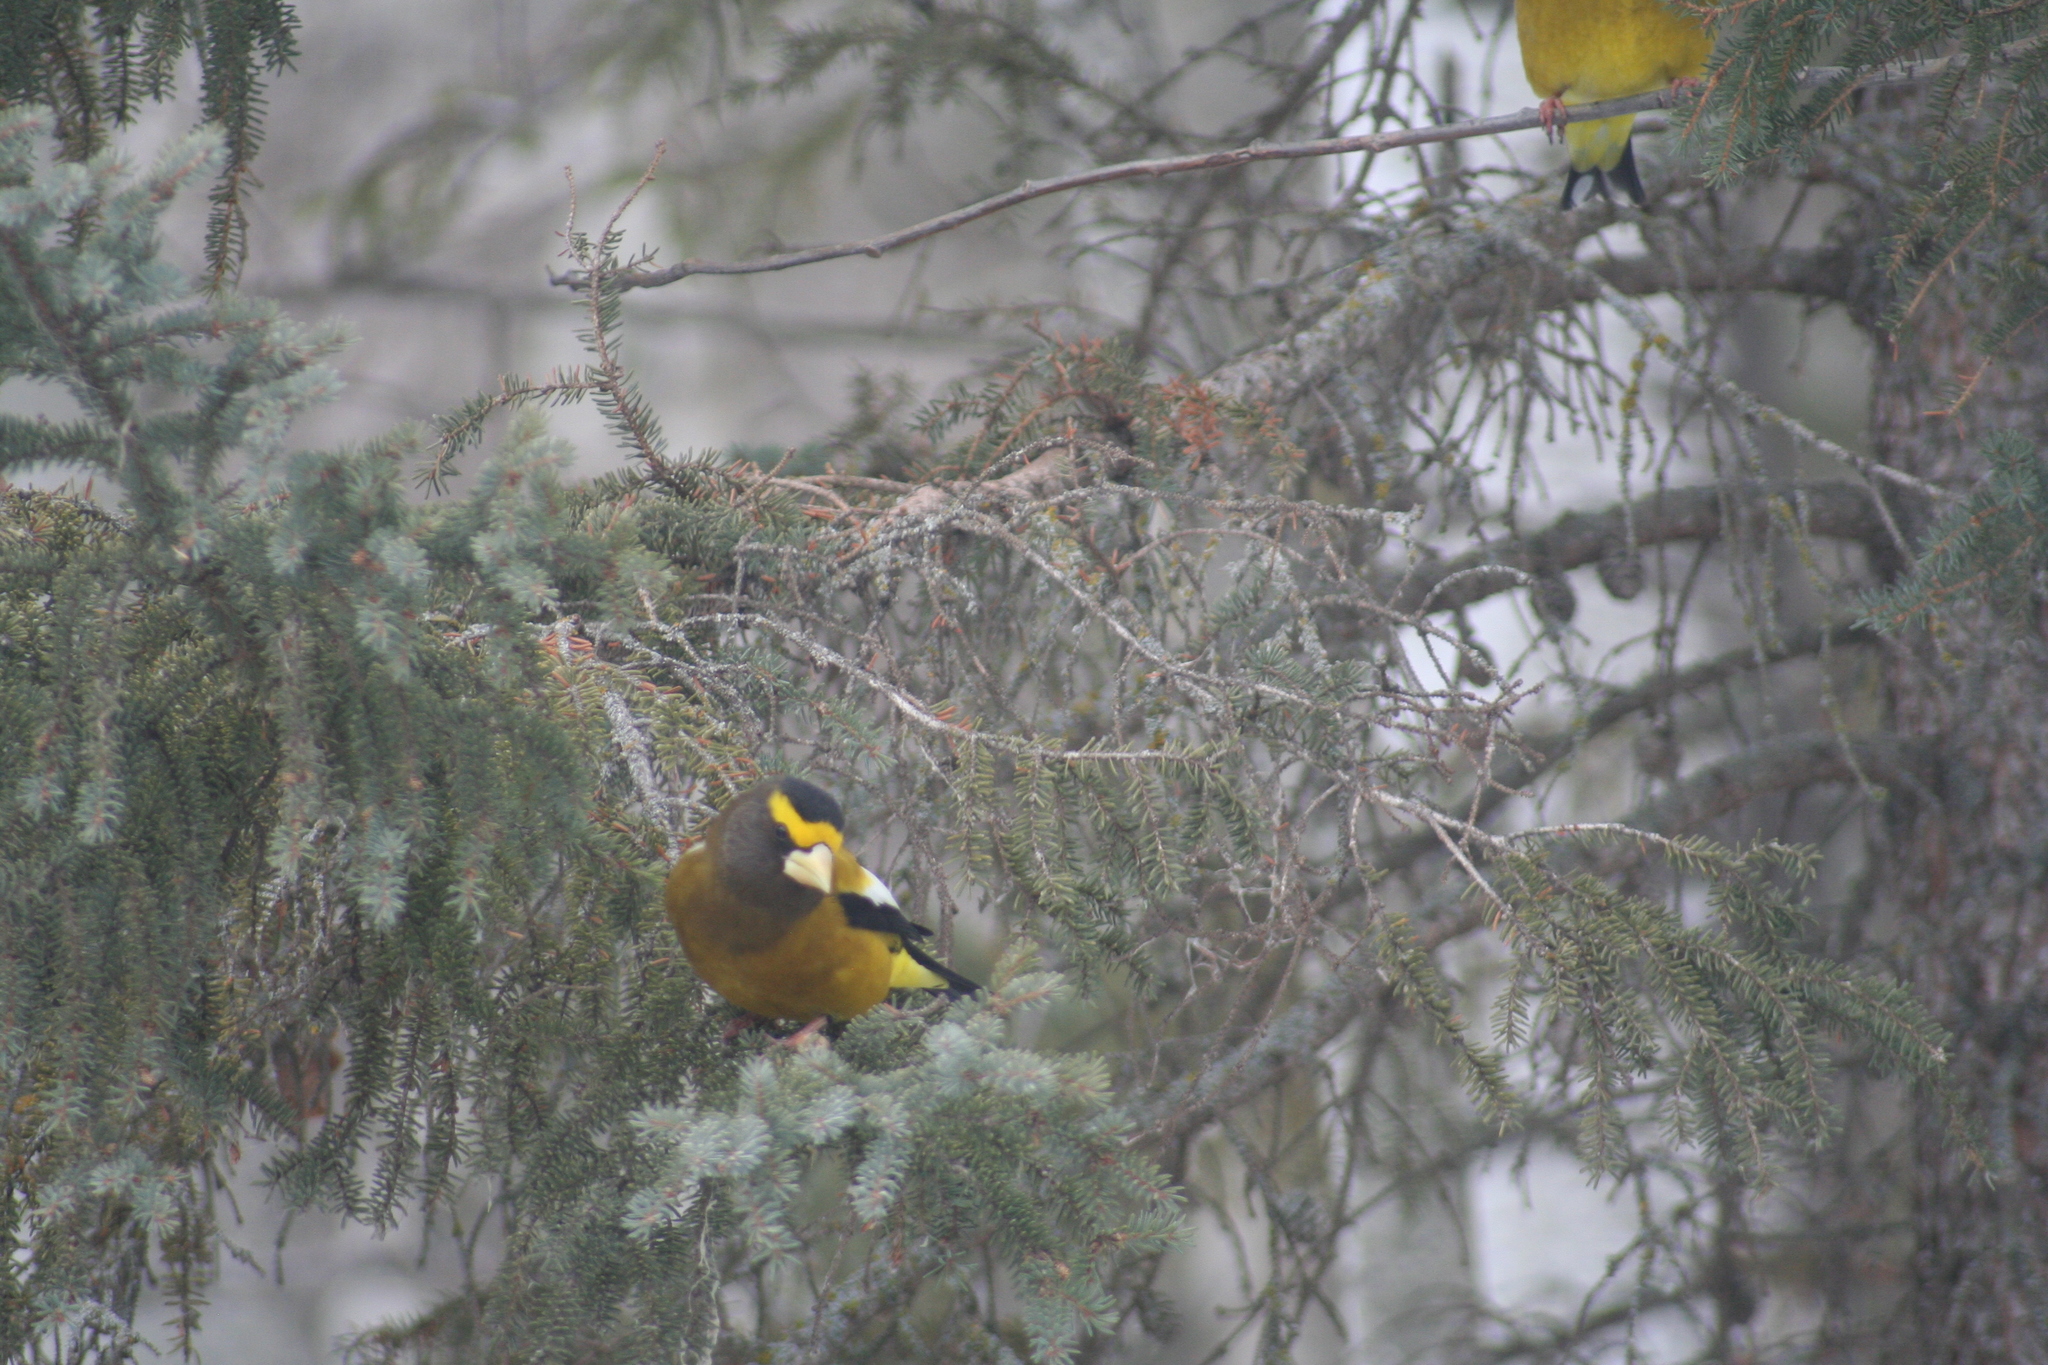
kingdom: Animalia
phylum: Chordata
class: Aves
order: Passeriformes
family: Fringillidae
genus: Hesperiphona
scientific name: Hesperiphona vespertina
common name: Evening grosbeak
